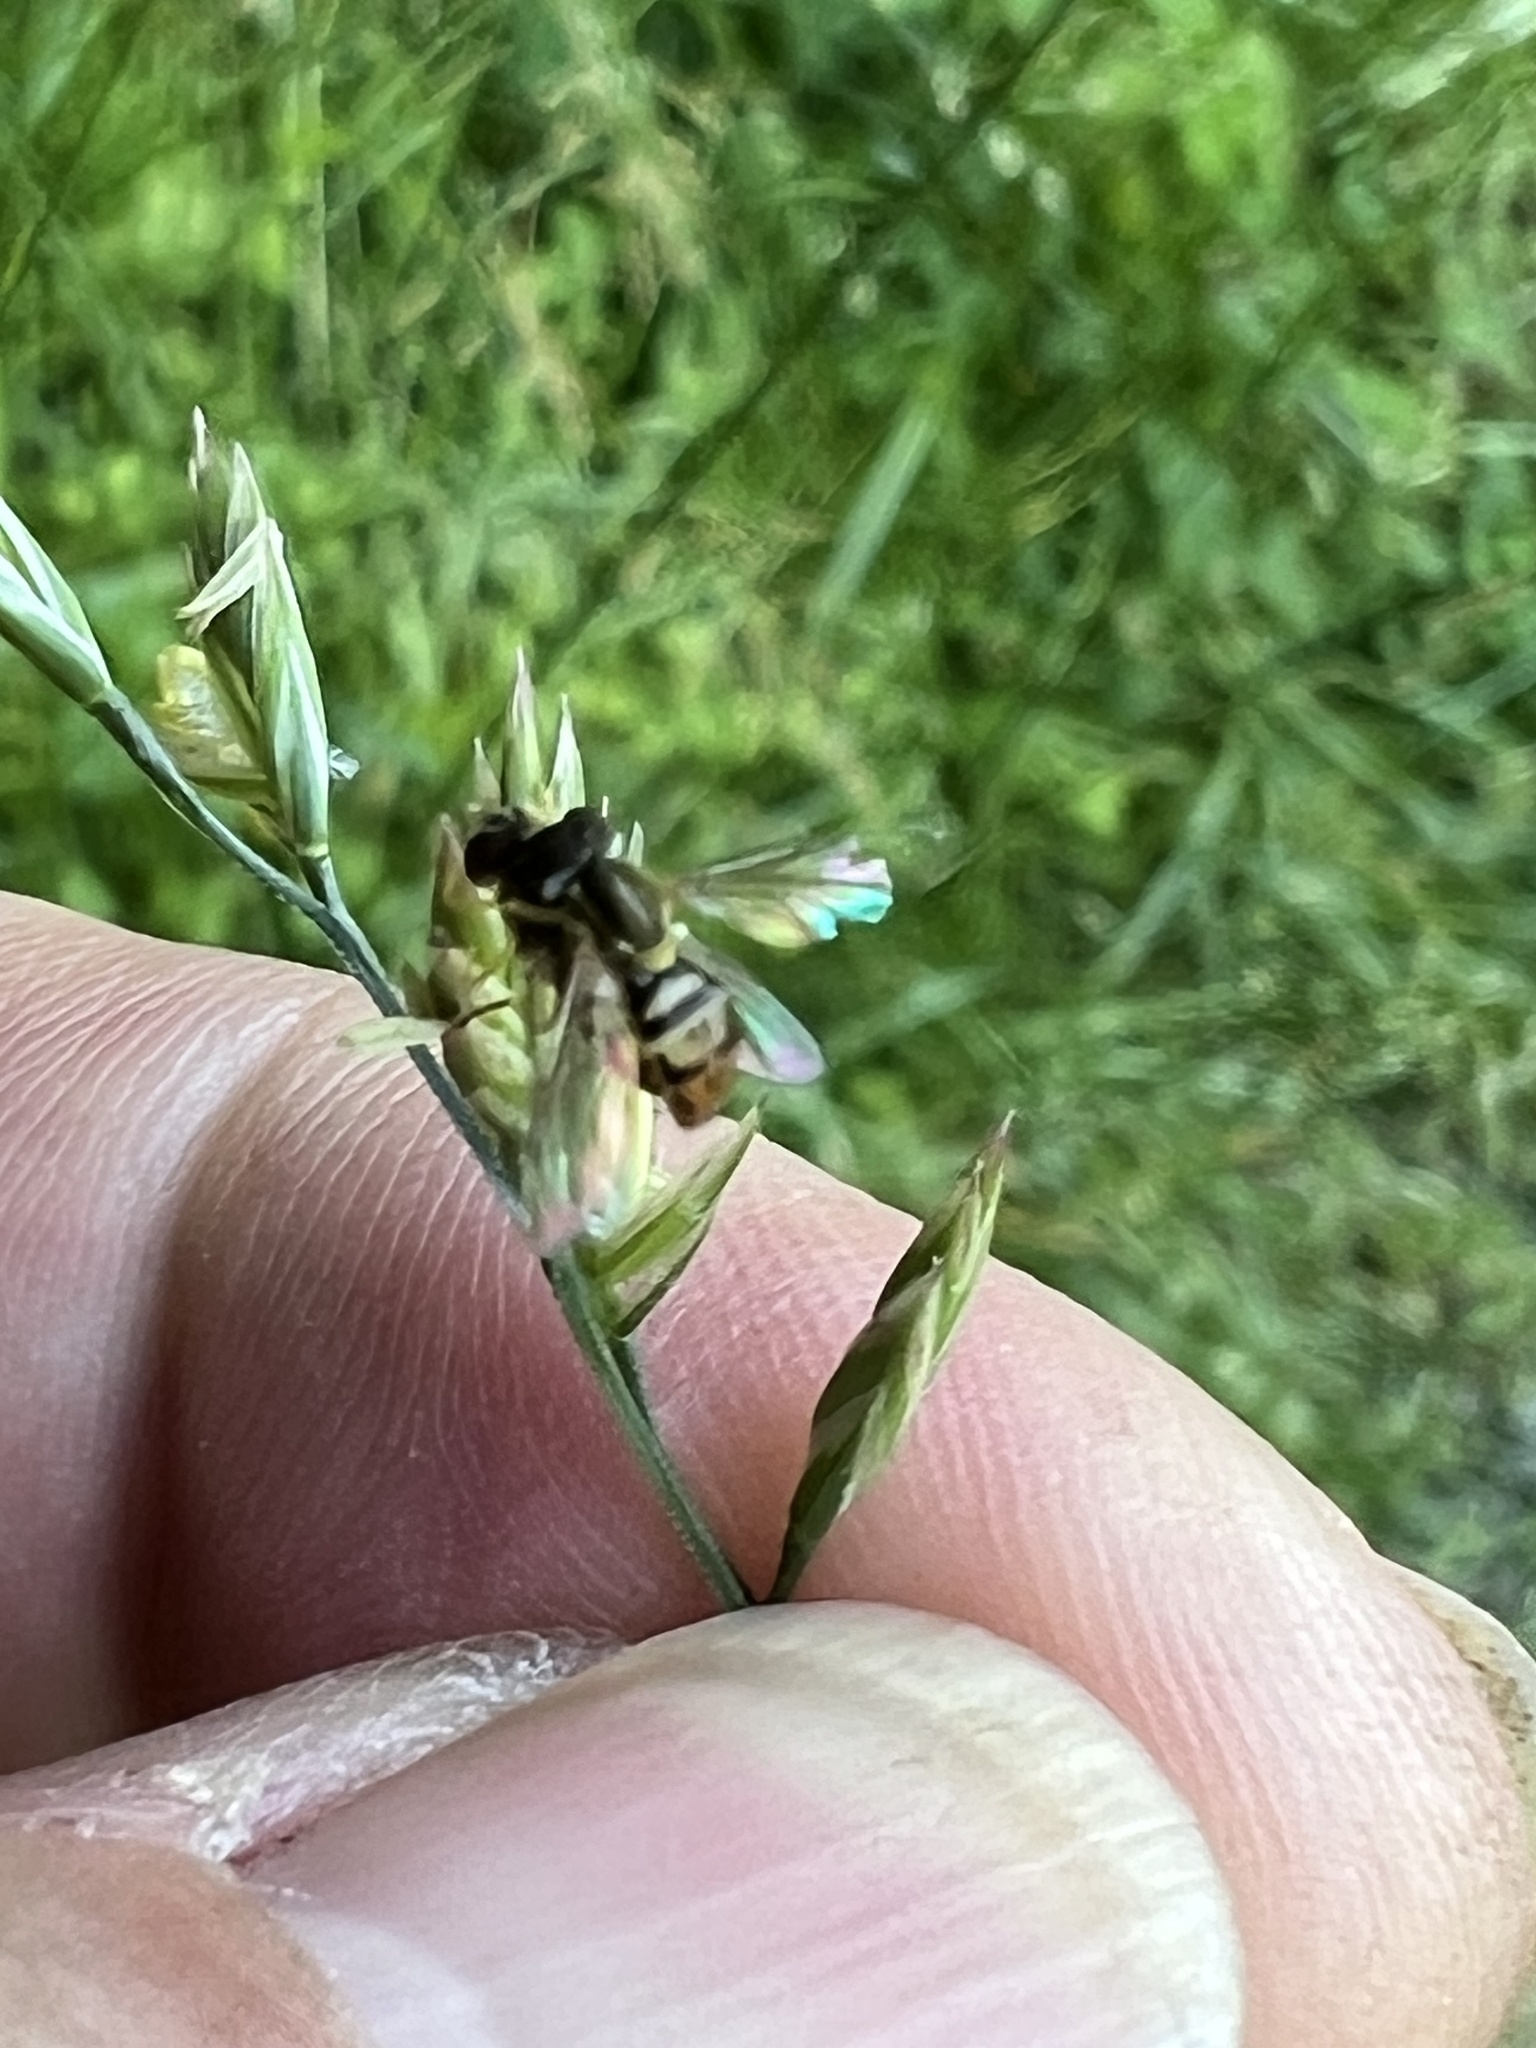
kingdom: Animalia
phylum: Arthropoda
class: Insecta
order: Diptera
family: Syrphidae
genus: Toxomerus
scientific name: Toxomerus marginatus
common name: Syrphid fly
